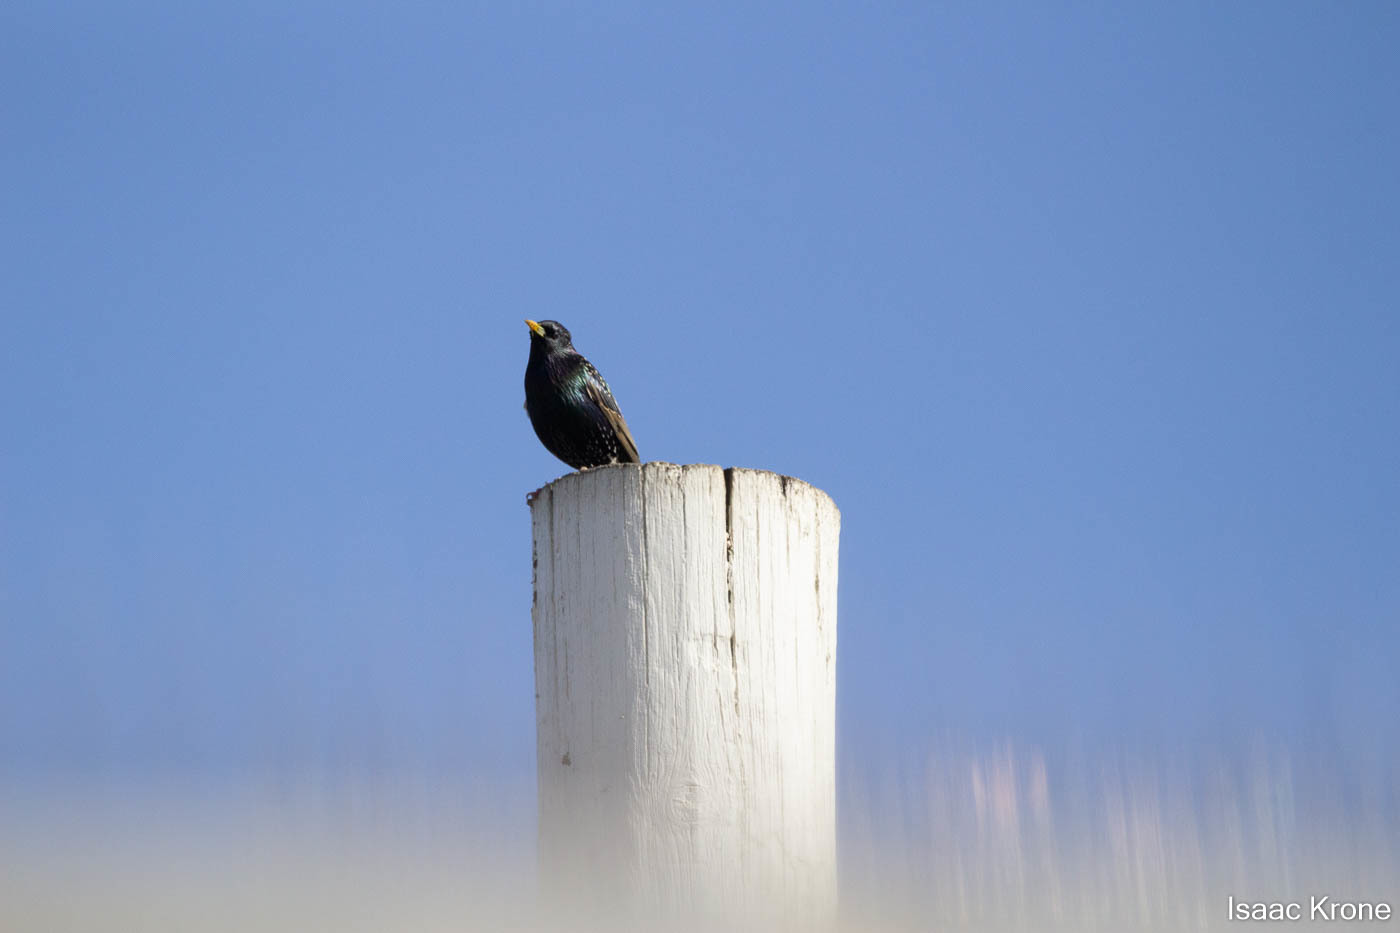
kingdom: Animalia
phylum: Chordata
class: Aves
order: Passeriformes
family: Sturnidae
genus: Sturnus
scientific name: Sturnus vulgaris
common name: Common starling
